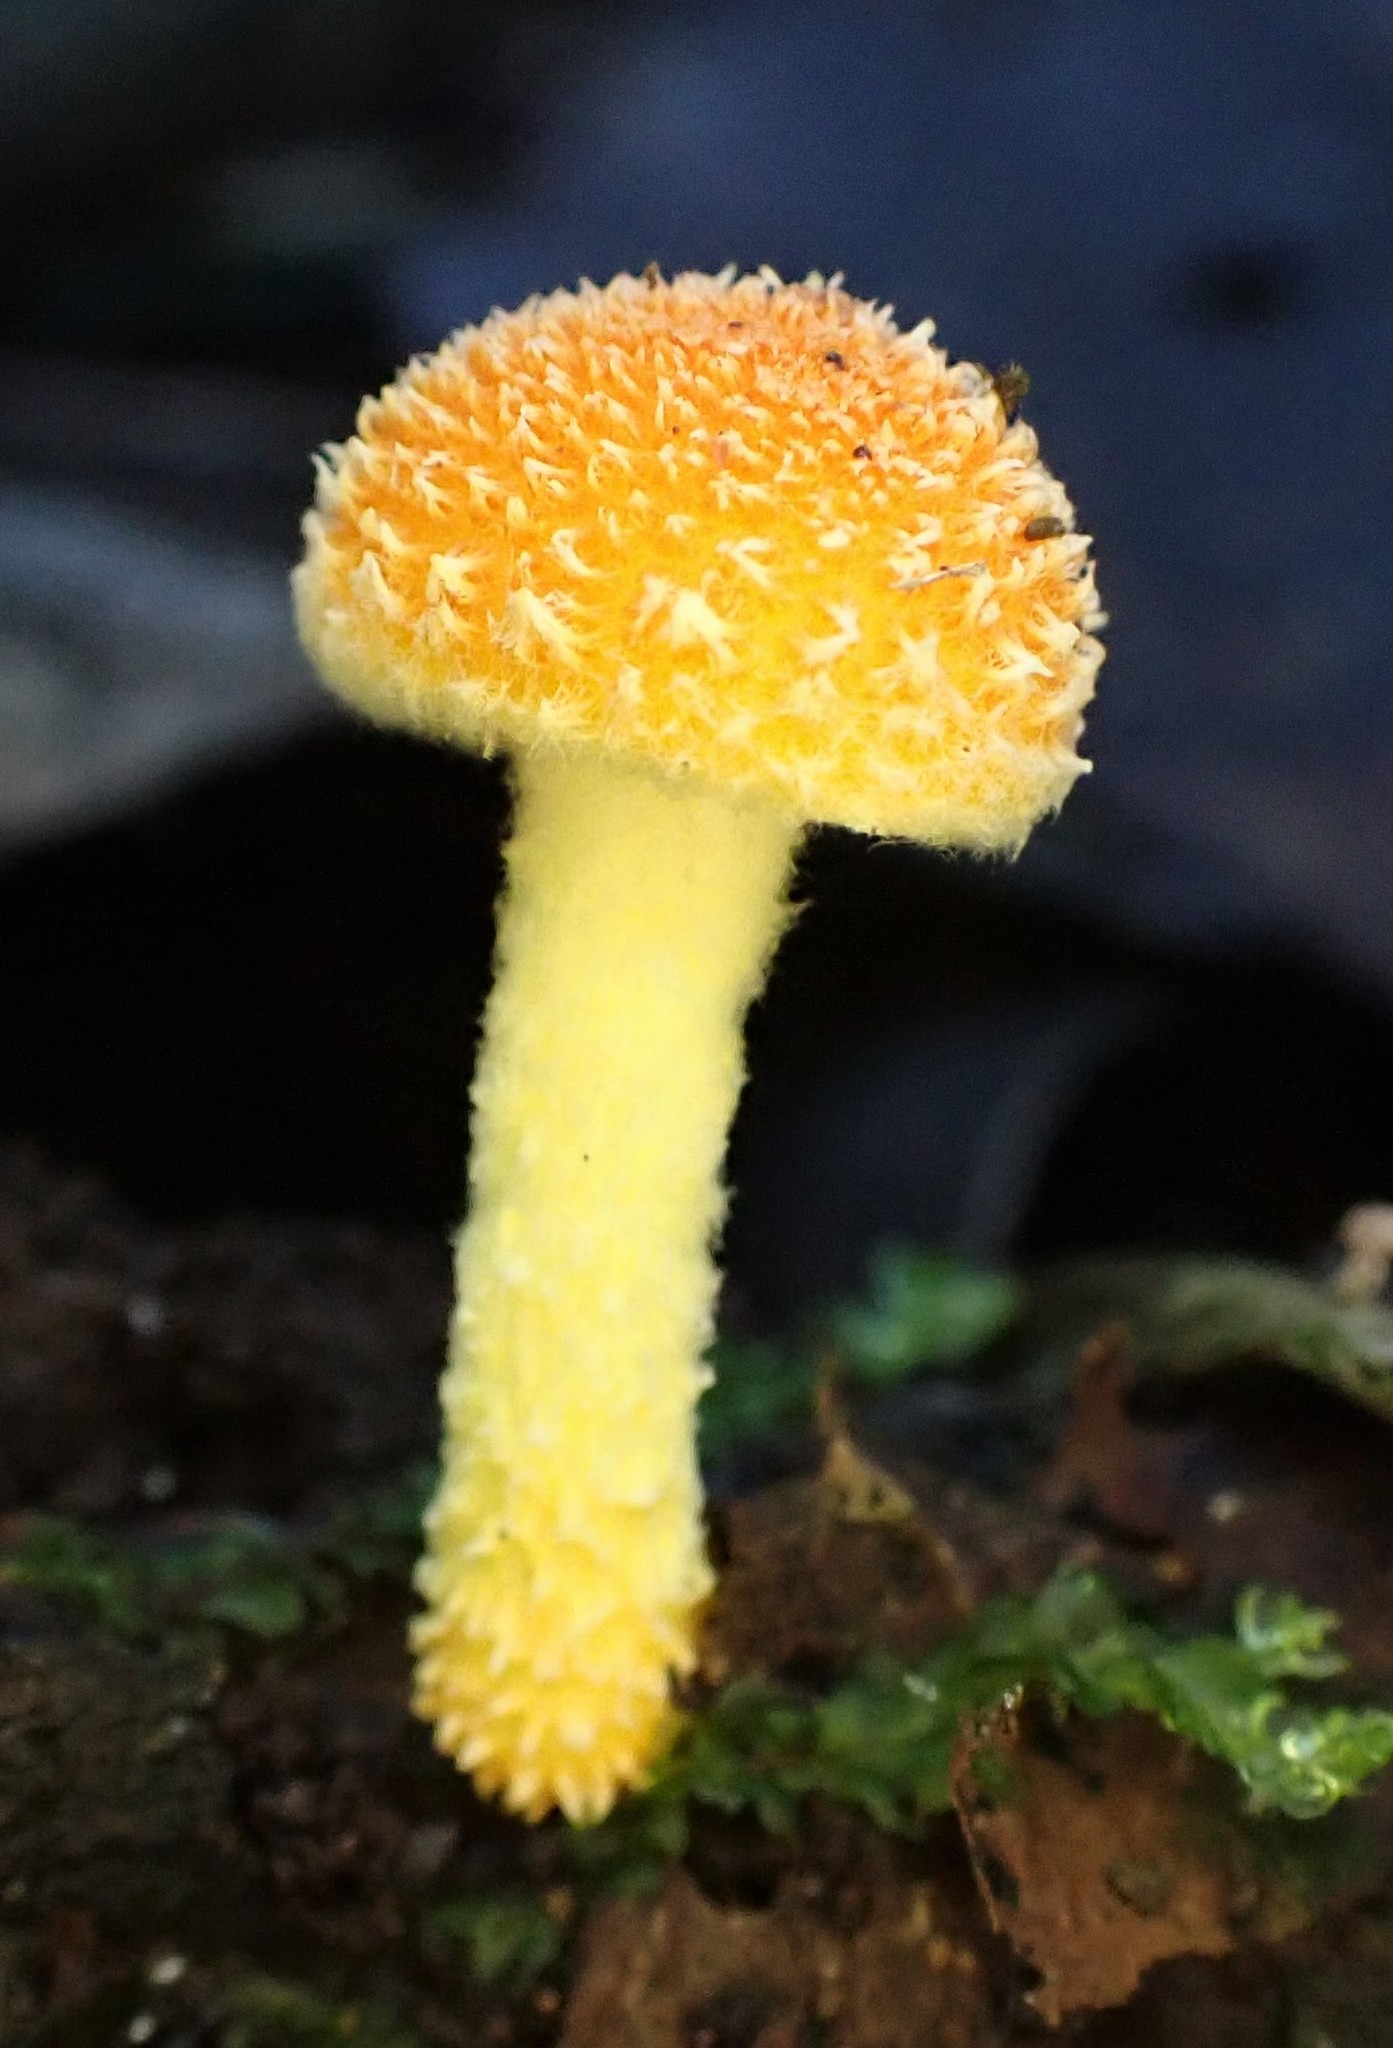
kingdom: Fungi
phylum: Basidiomycota
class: Agaricomycetes
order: Agaricales
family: Physalacriaceae
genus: Cyptotrama
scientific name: Cyptotrama asprata
